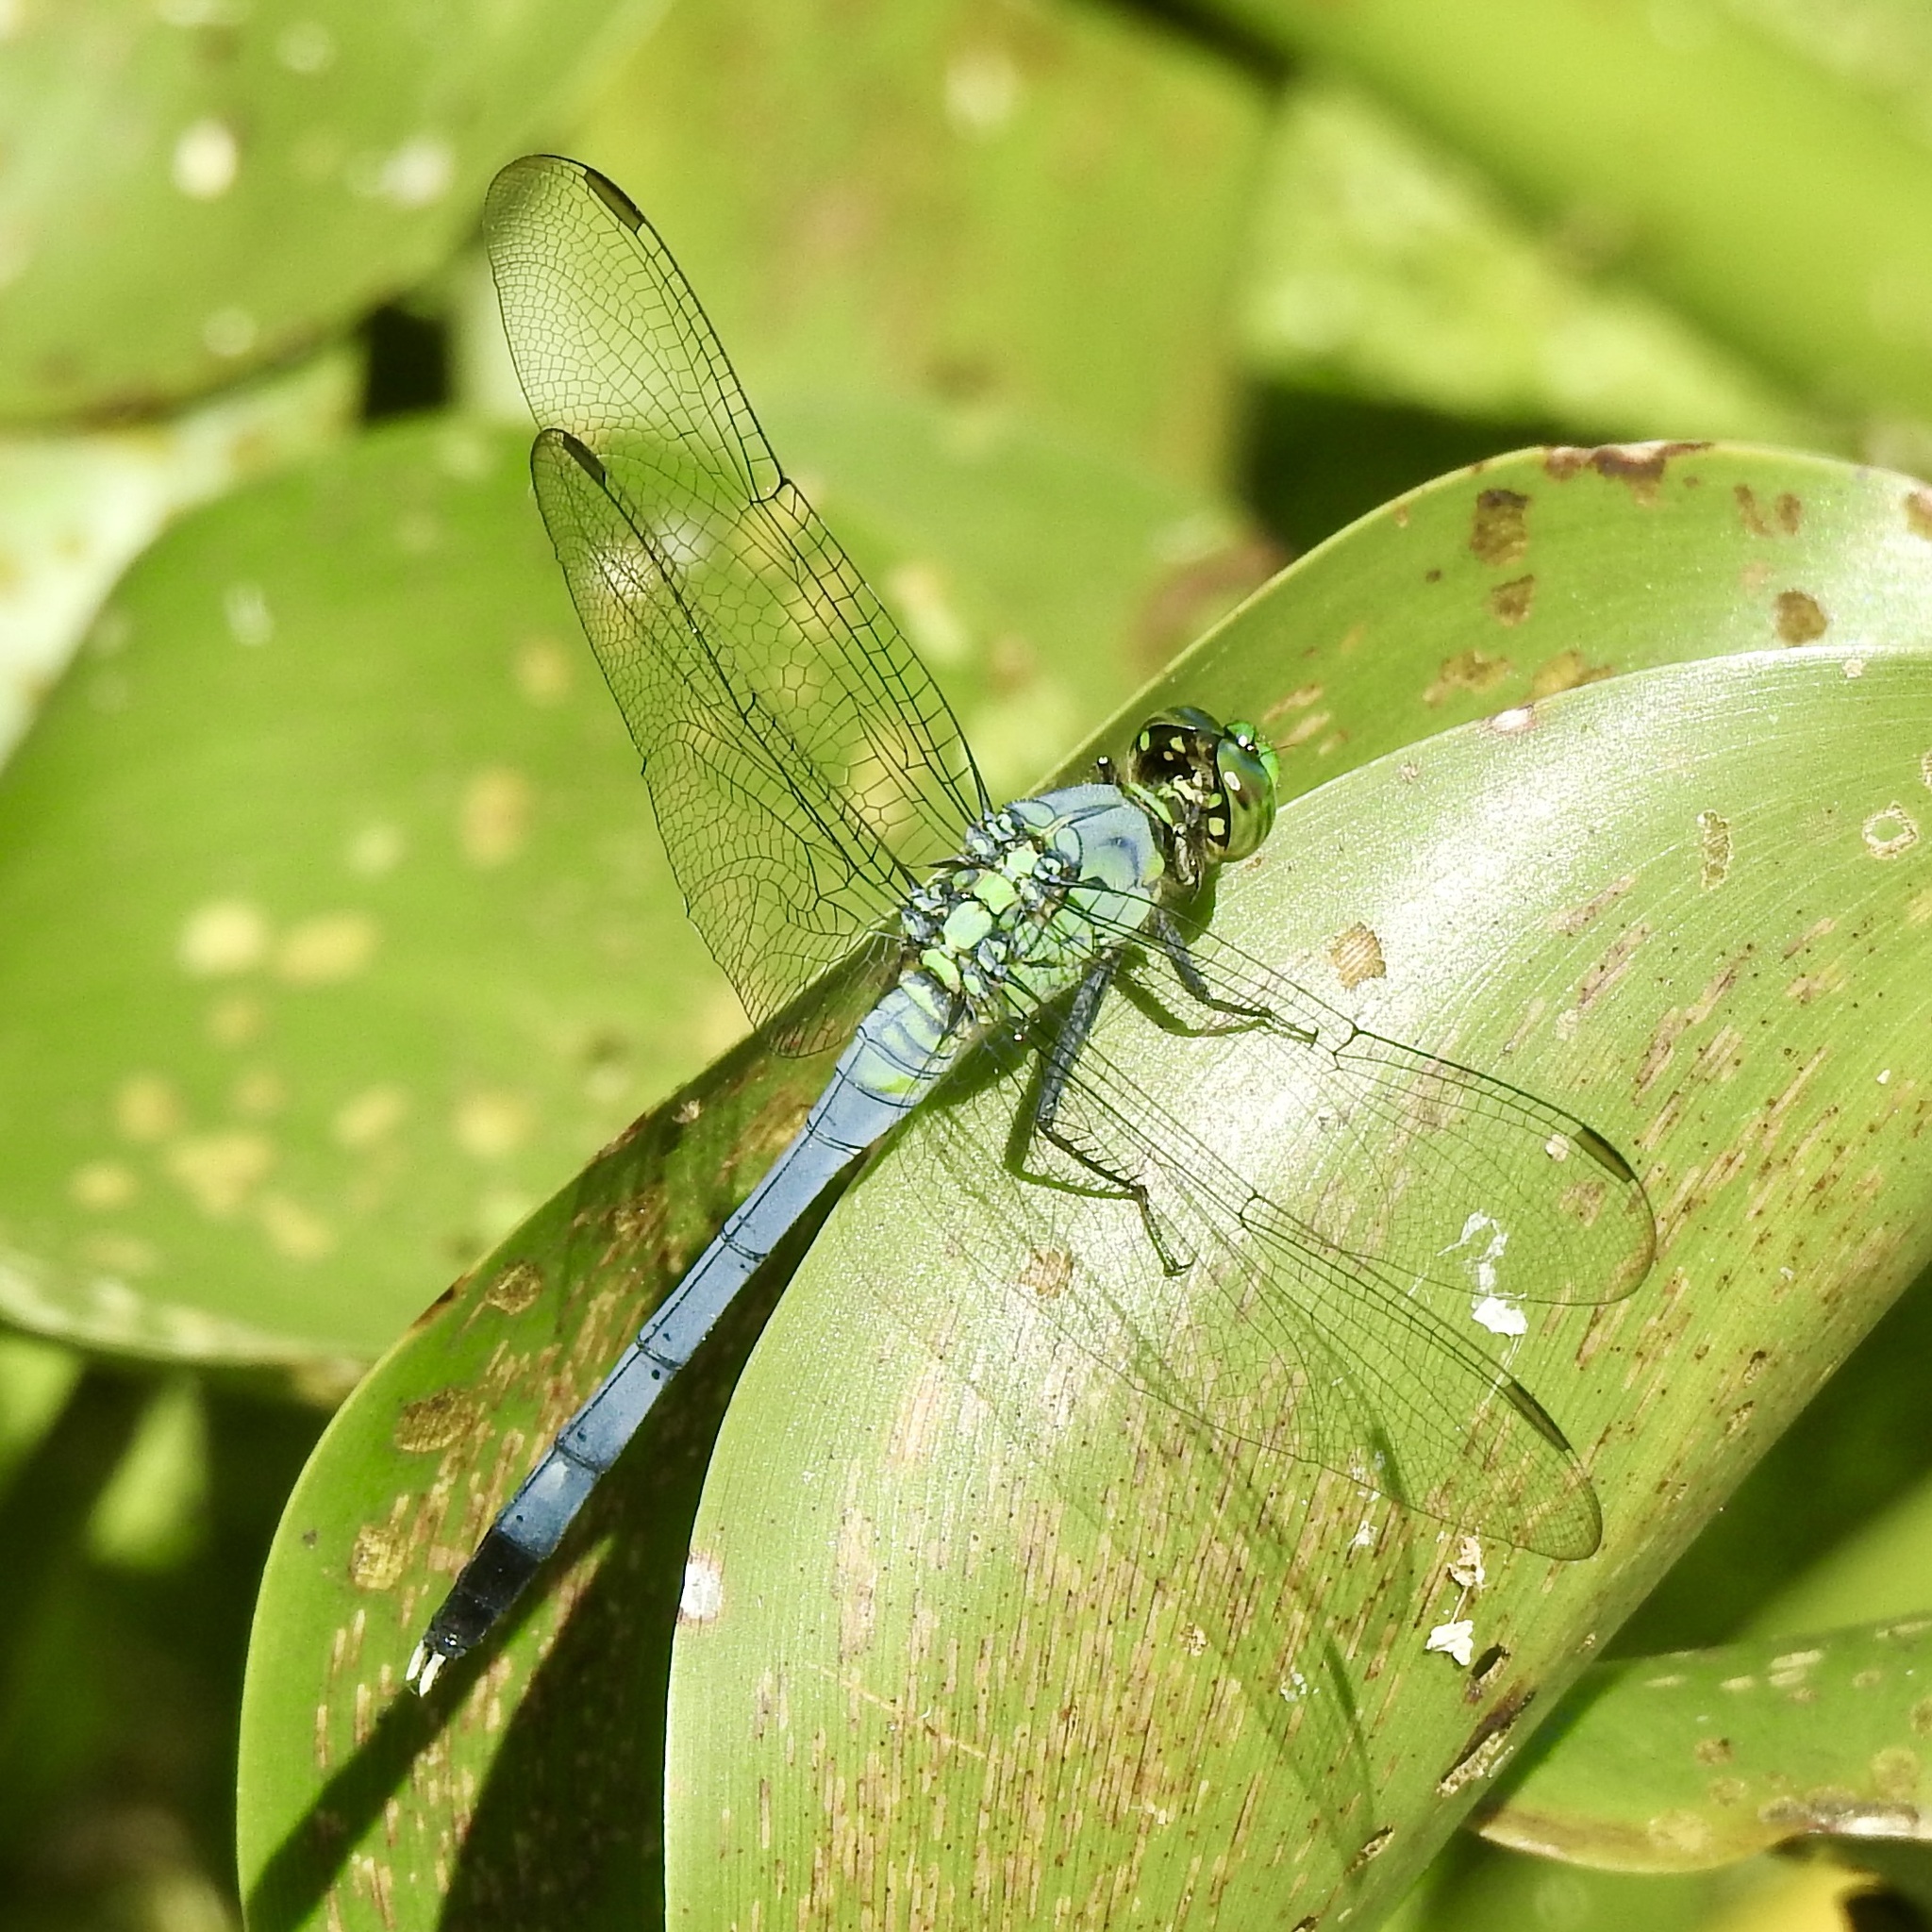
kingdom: Animalia
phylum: Arthropoda
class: Insecta
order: Odonata
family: Libellulidae
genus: Erythemis
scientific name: Erythemis simplicicollis
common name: Eastern pondhawk
